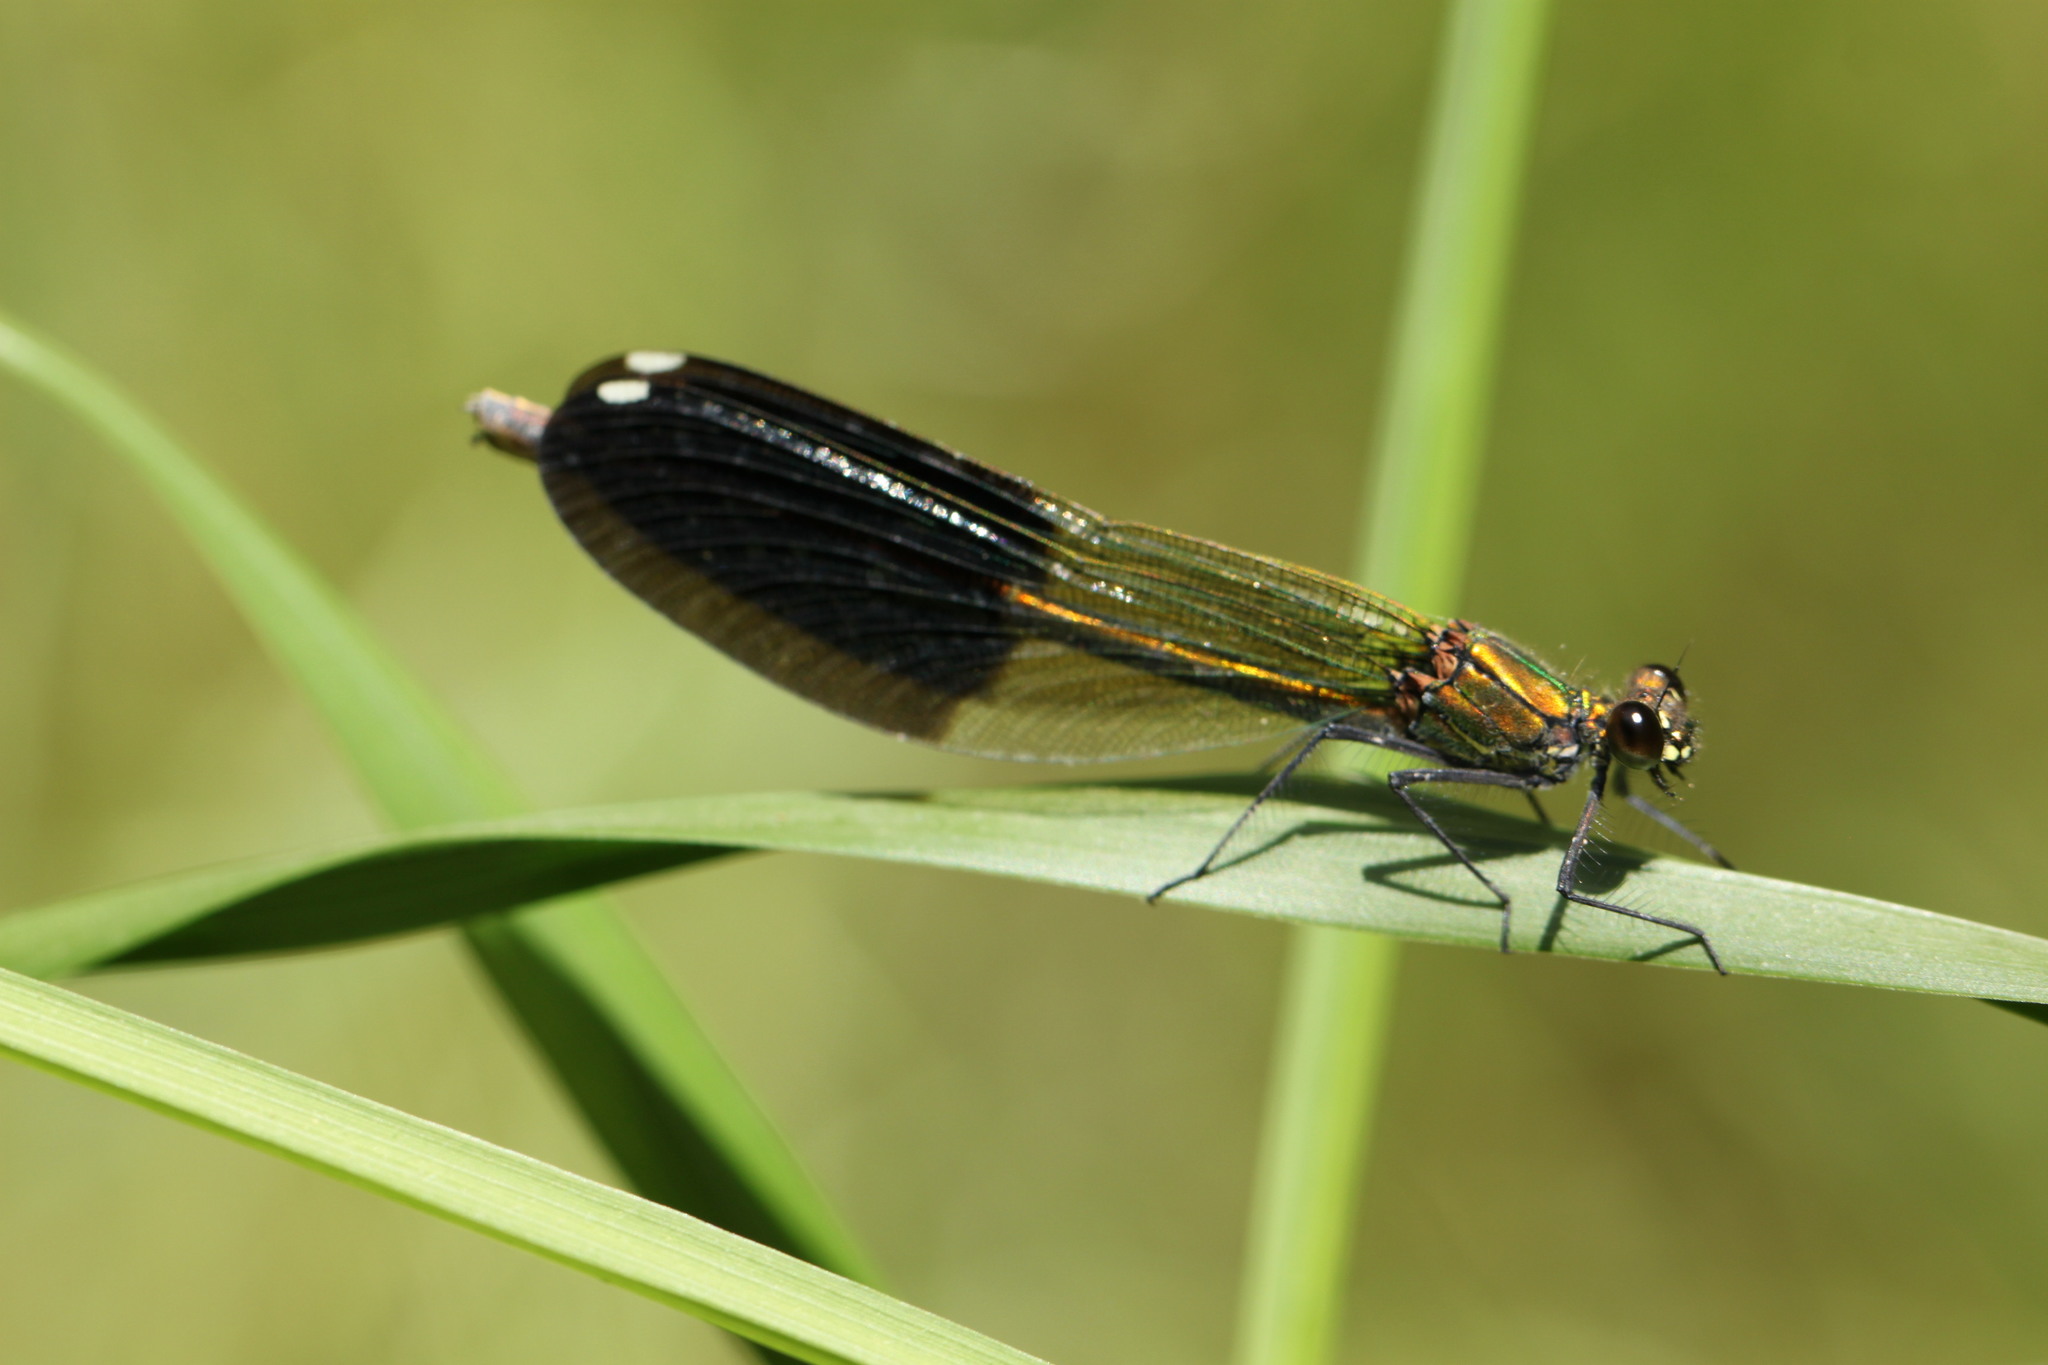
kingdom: Animalia
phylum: Arthropoda
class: Insecta
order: Odonata
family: Calopterygidae
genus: Calopteryx
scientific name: Calopteryx splendens
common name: Banded demoiselle
